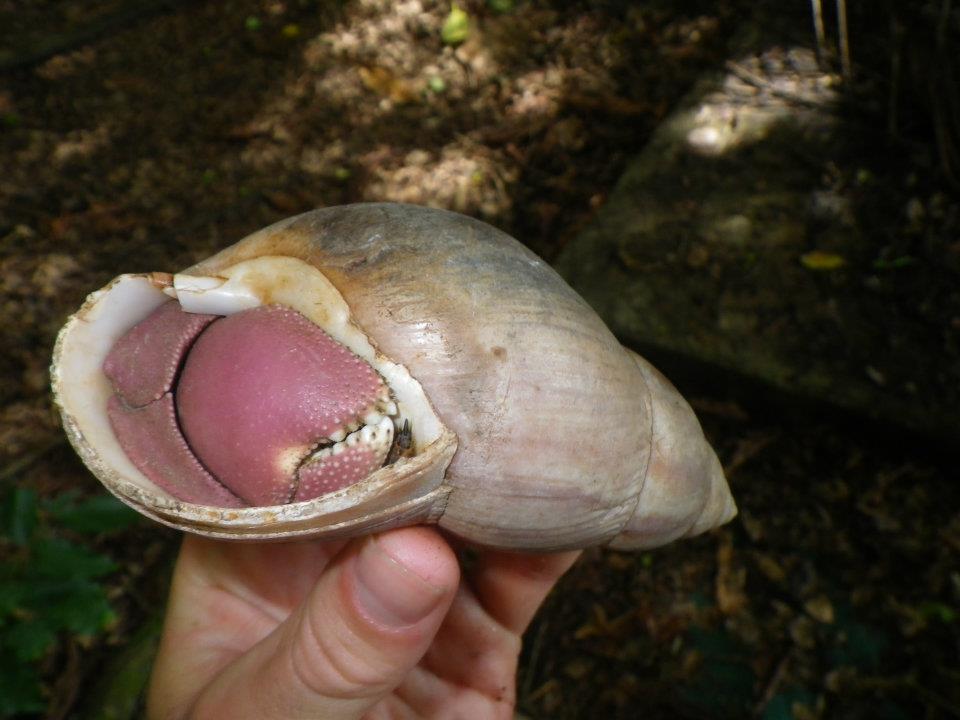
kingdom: Animalia
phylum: Arthropoda
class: Malacostraca
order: Decapoda
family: Coenobitidae
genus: Coenobita
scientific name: Coenobita brevimanus
